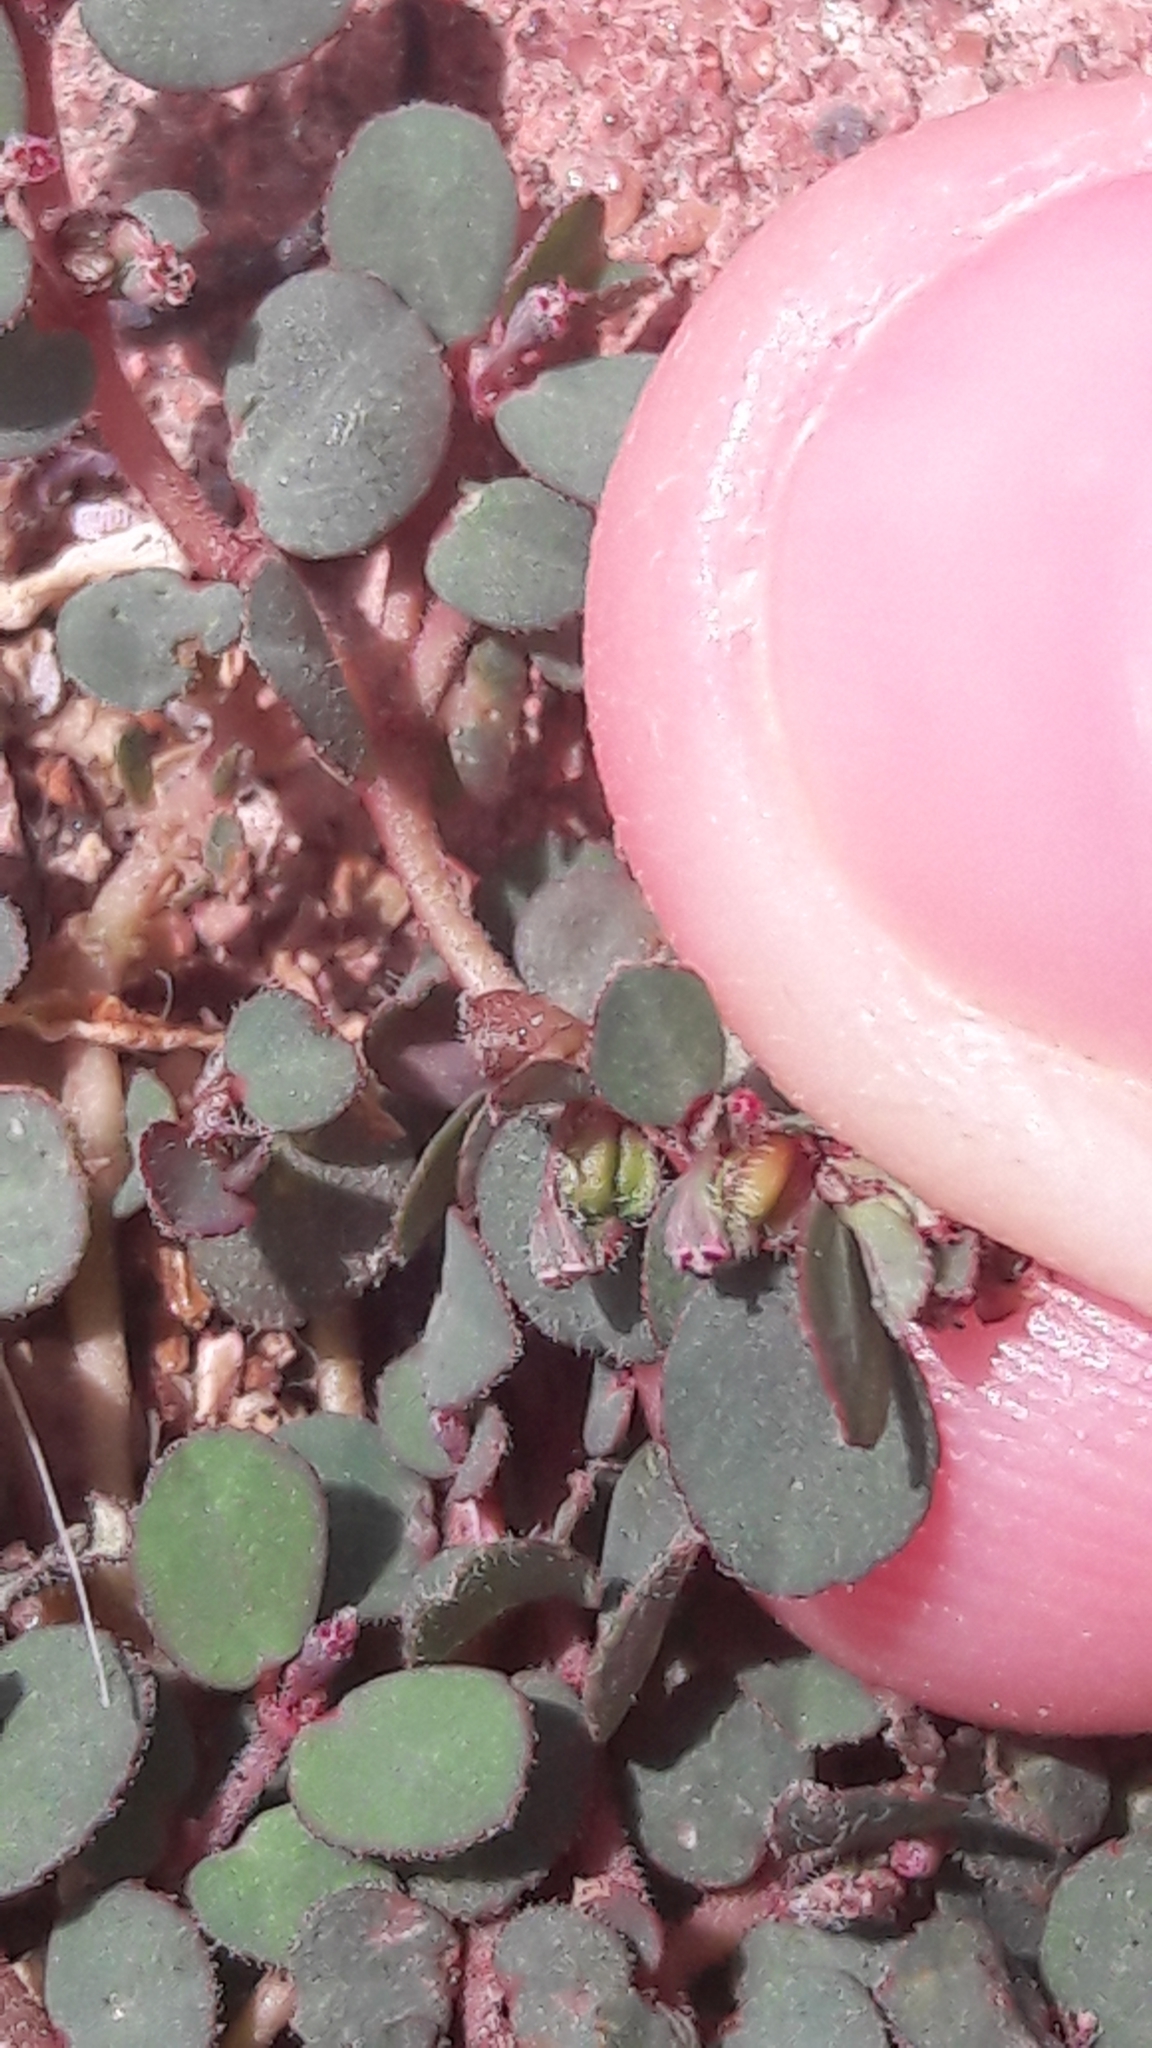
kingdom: Plantae
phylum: Tracheophyta
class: Magnoliopsida
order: Malpighiales
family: Euphorbiaceae
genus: Euphorbia
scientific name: Euphorbia prostrata
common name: Prostrate sandmat
